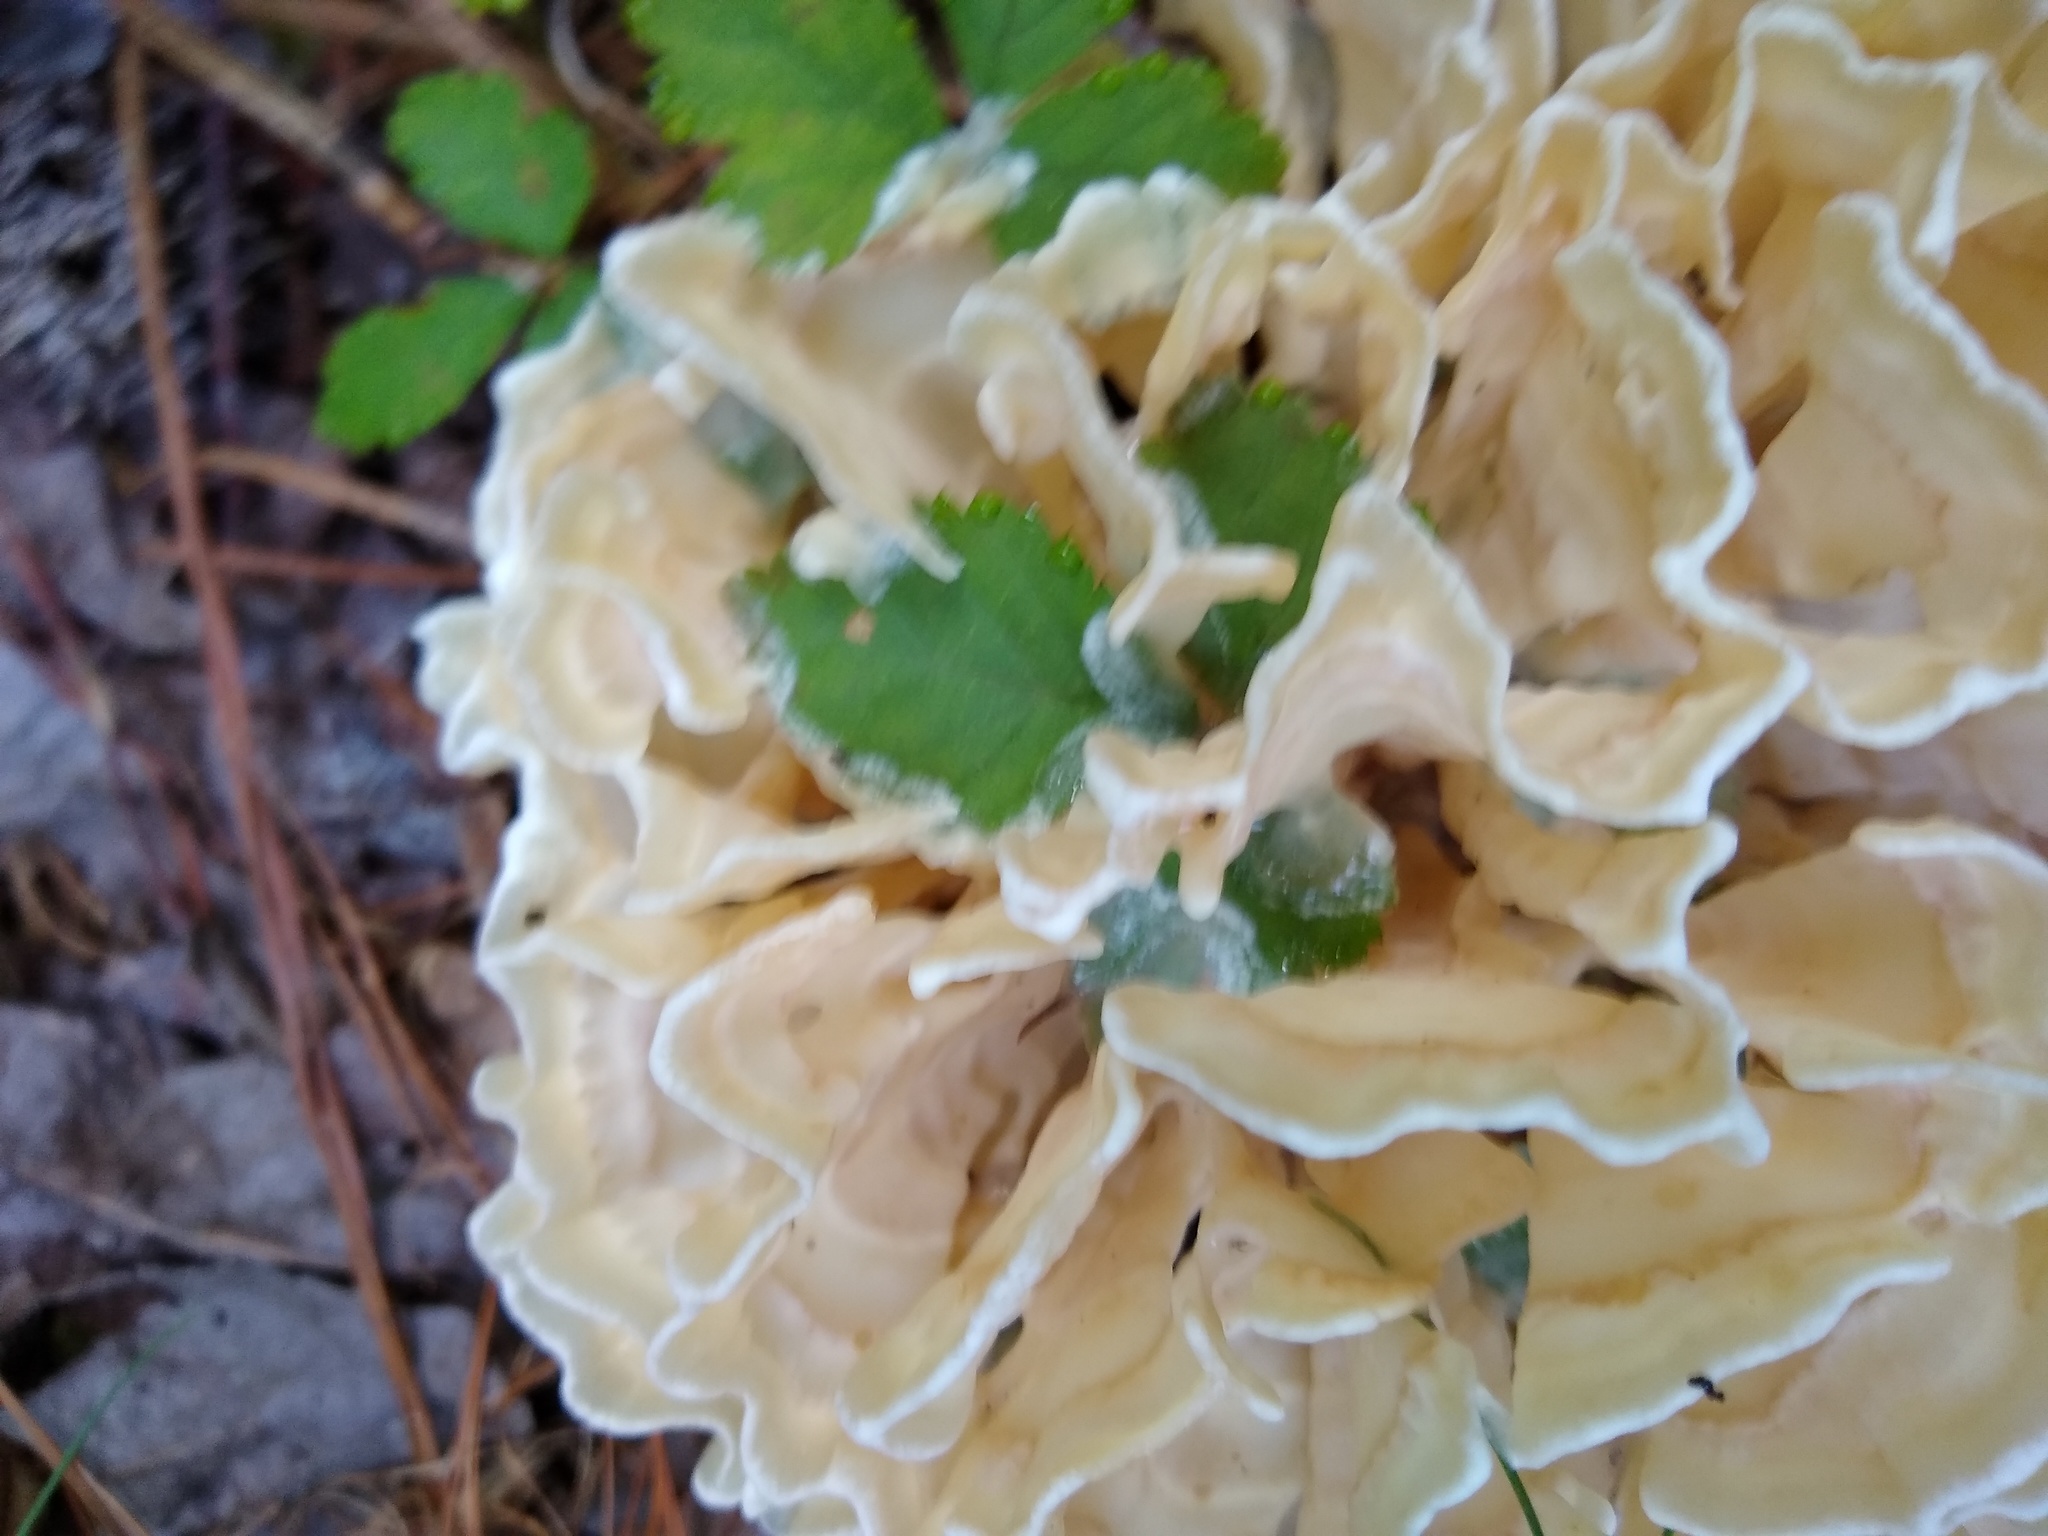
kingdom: Fungi
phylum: Basidiomycota
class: Agaricomycetes
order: Polyporales
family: Sparassidaceae
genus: Sparassis
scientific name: Sparassis spathulata
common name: Eastern cauliflower mushroom
